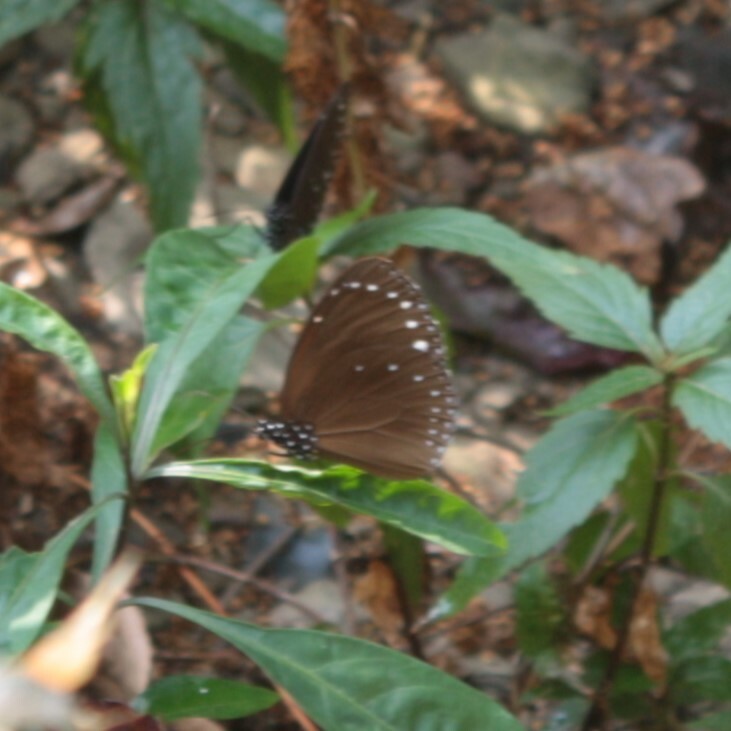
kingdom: Animalia
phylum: Arthropoda
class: Insecta
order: Lepidoptera
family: Nymphalidae
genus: Euploea
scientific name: Euploea tulliolus
